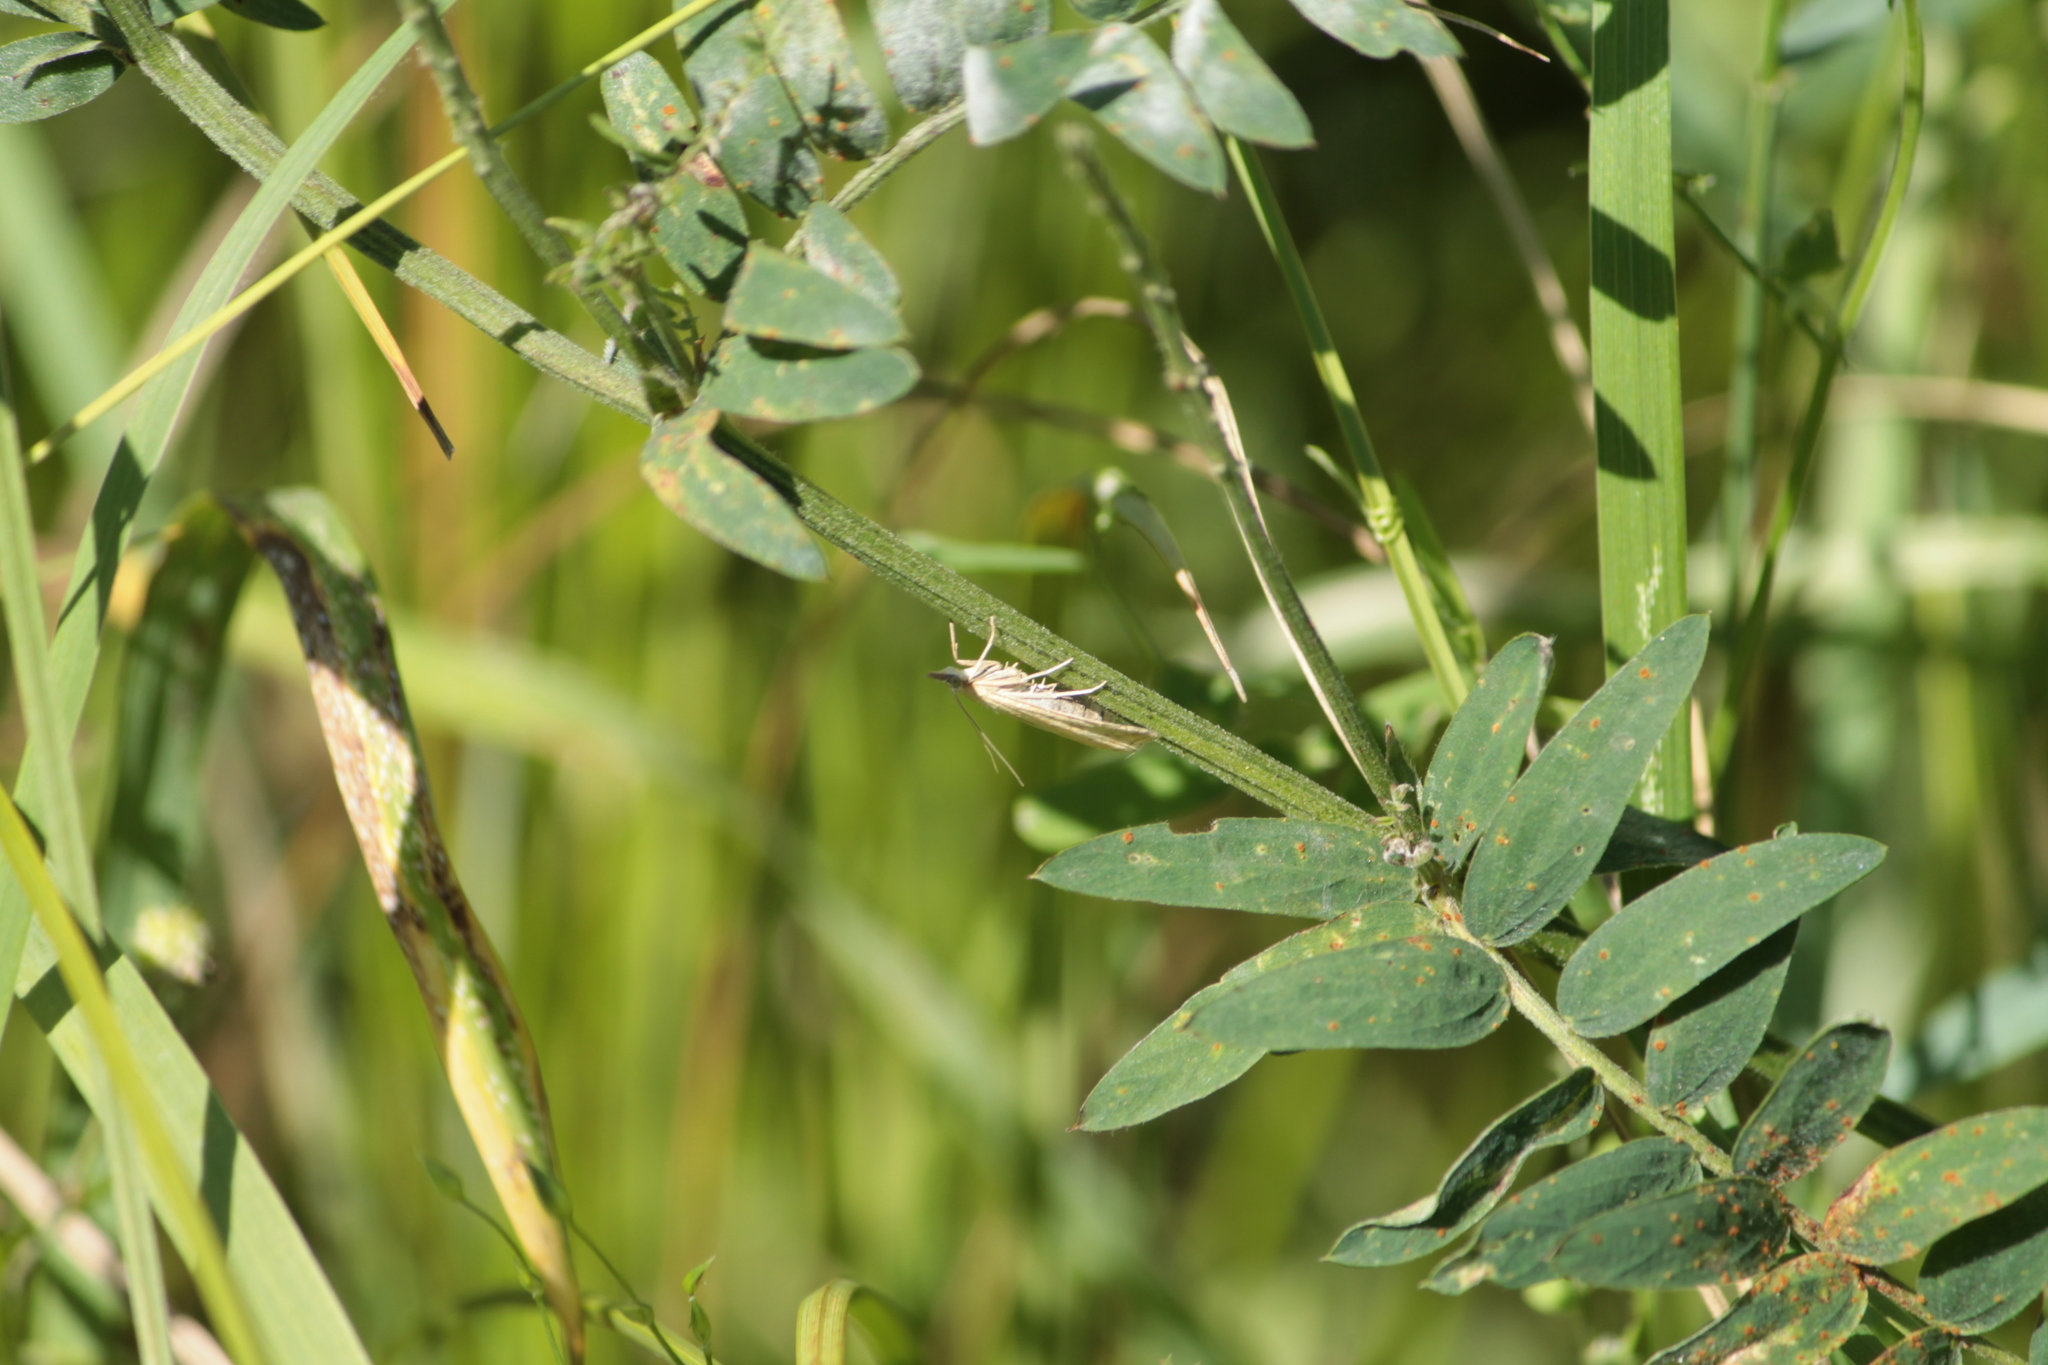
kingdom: Animalia
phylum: Arthropoda
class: Insecta
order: Lepidoptera
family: Crambidae
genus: Udea
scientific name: Udea lutealis
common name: Pale straw pearl
